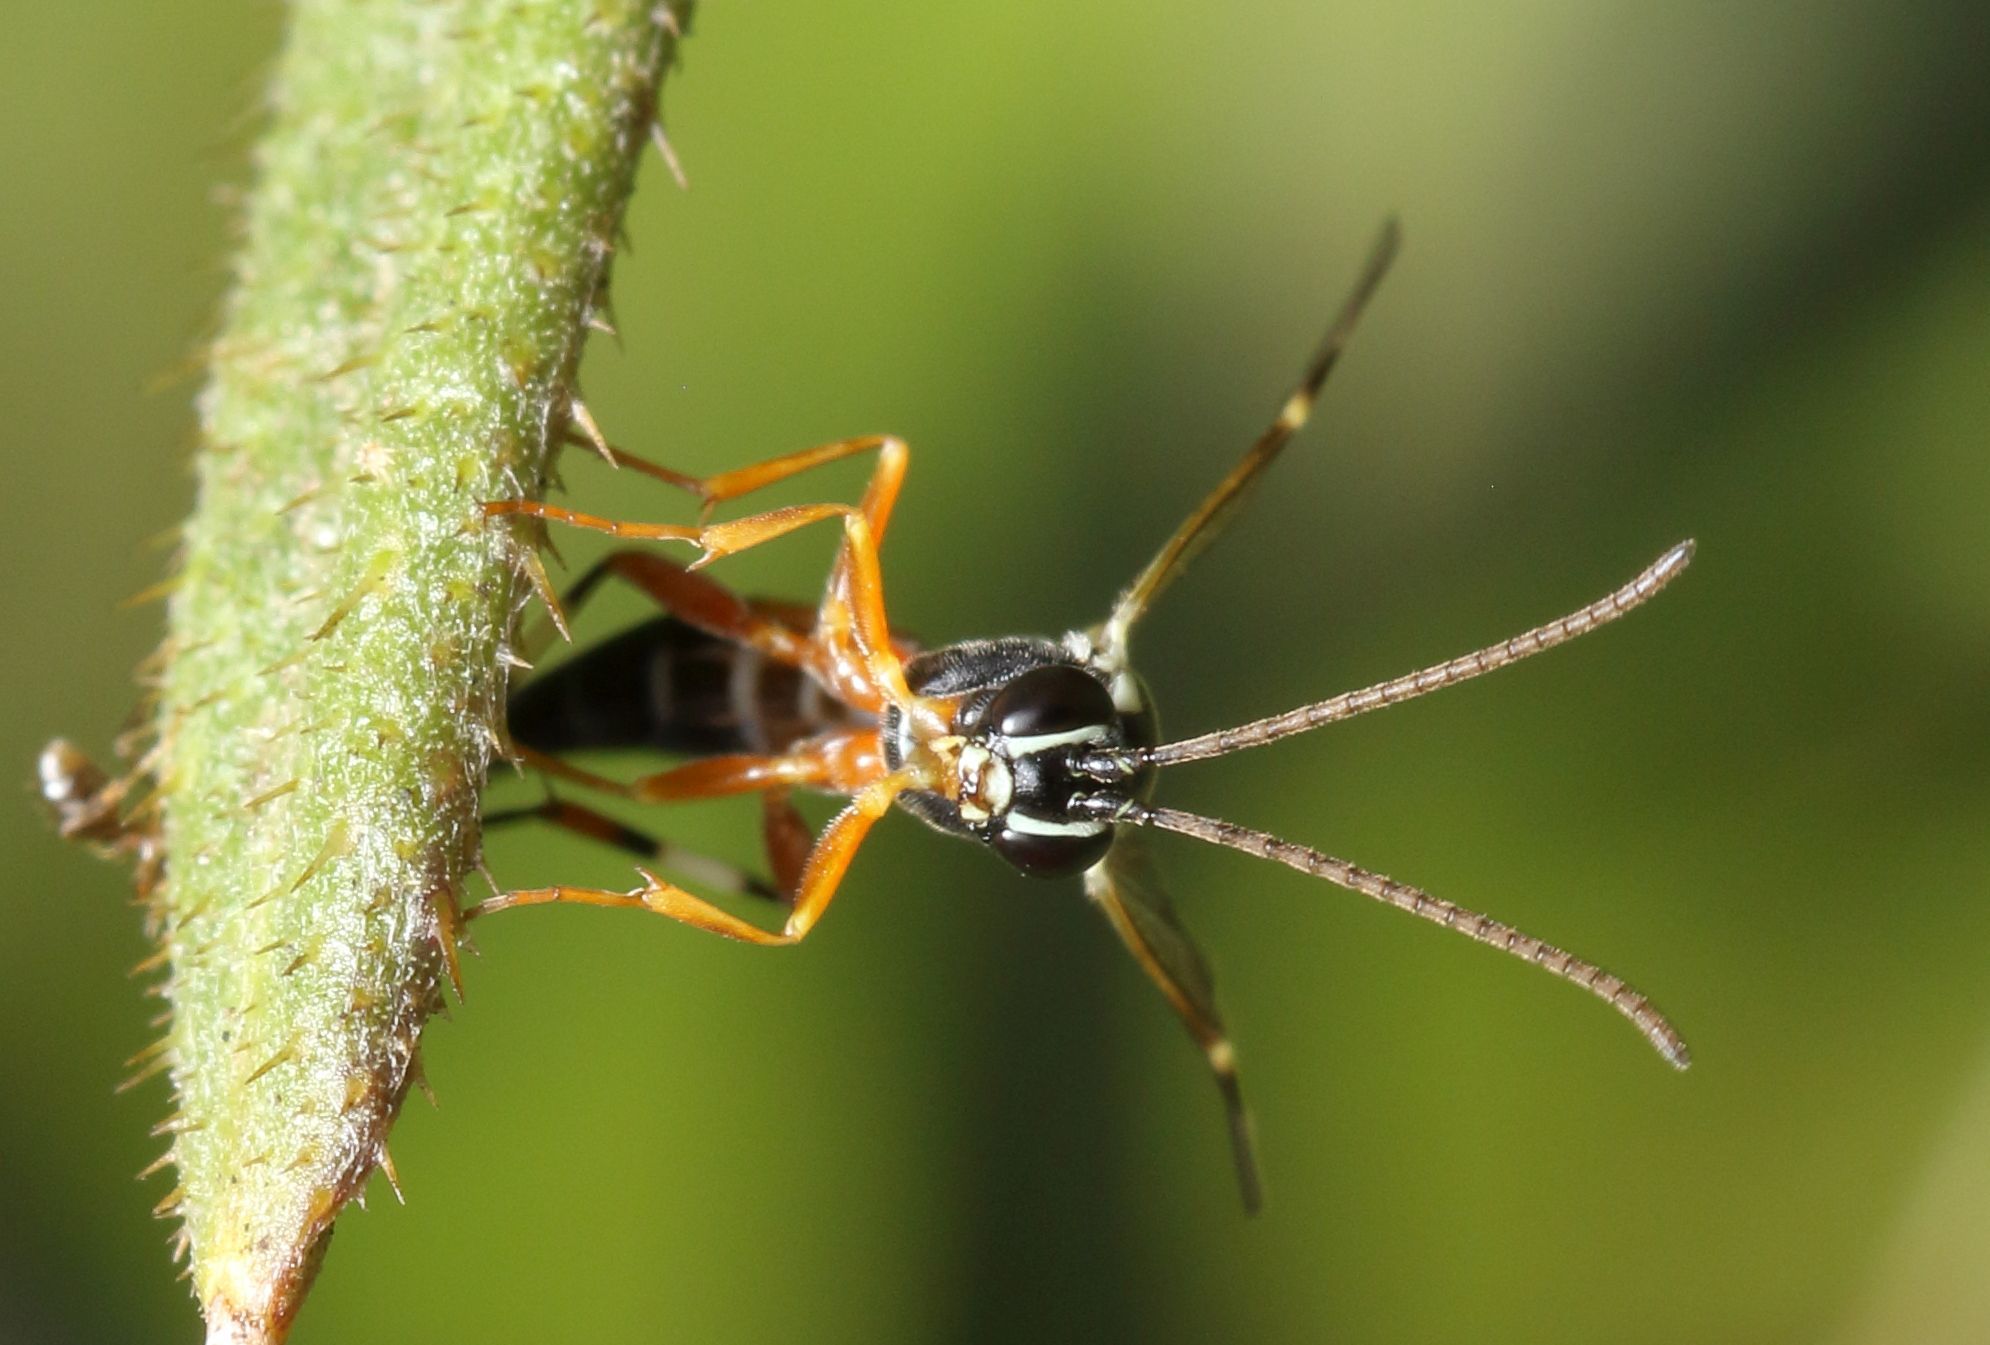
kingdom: Animalia
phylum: Arthropoda
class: Insecta
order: Hymenoptera
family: Ichneumonidae
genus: Diplazon
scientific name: Diplazon laetatorius
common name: Parasitoid wasp
